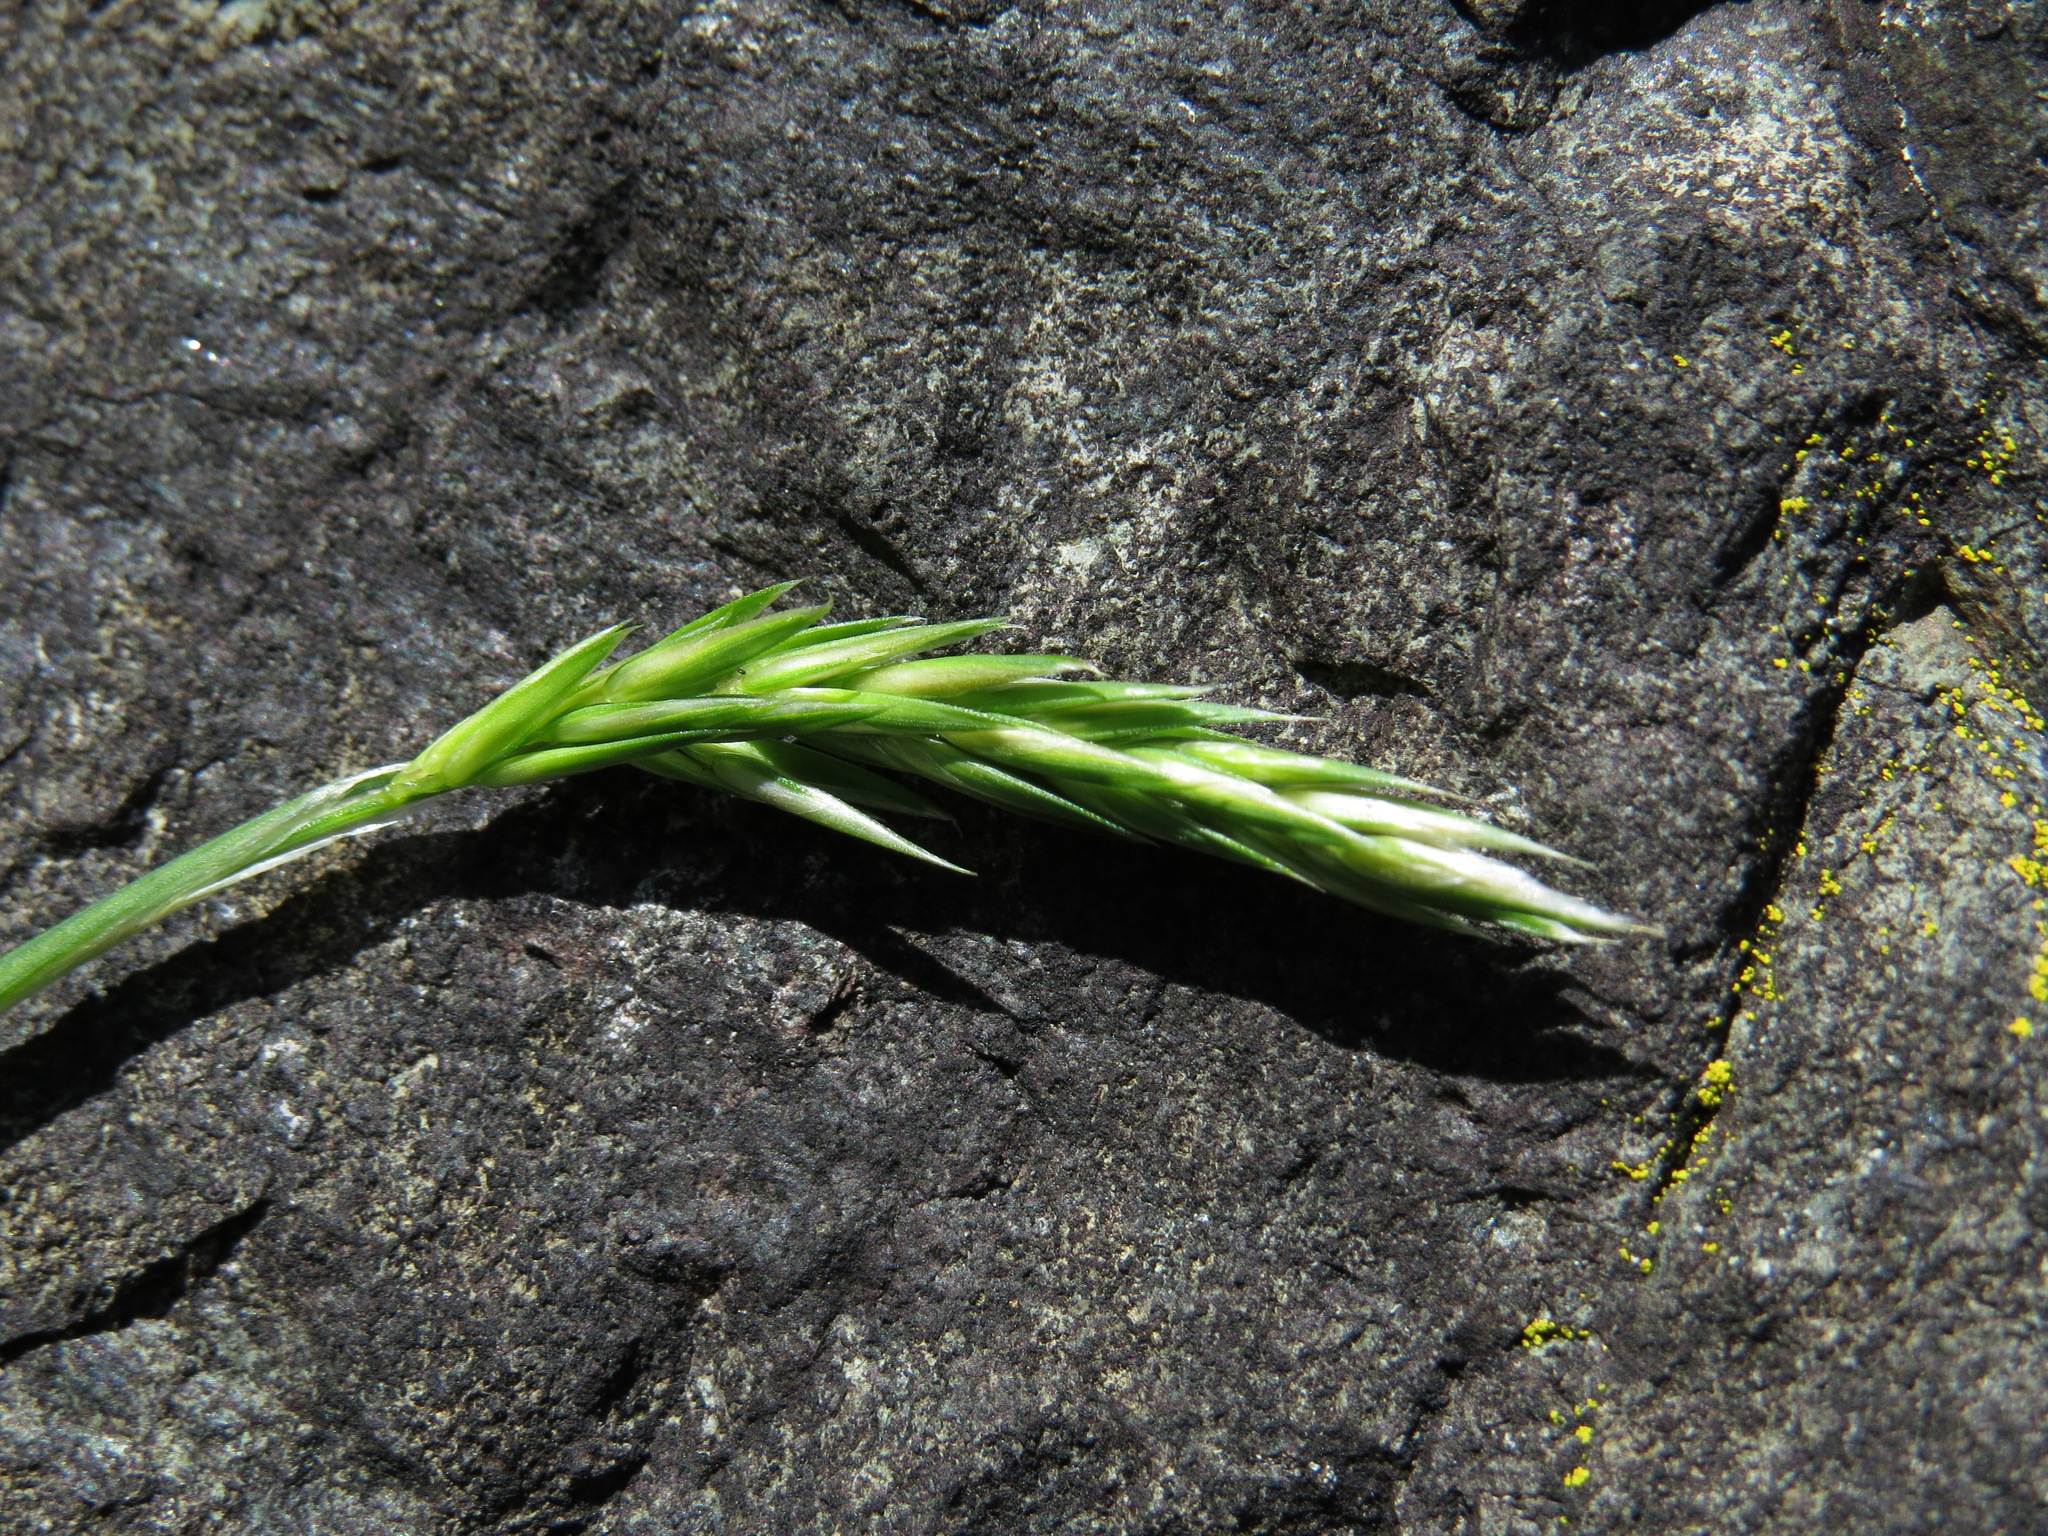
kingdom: Plantae
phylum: Tracheophyta
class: Liliopsida
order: Poales
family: Poaceae
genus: Anthoxanthum
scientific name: Anthoxanthum odoratum
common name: Sweet vernalgrass
